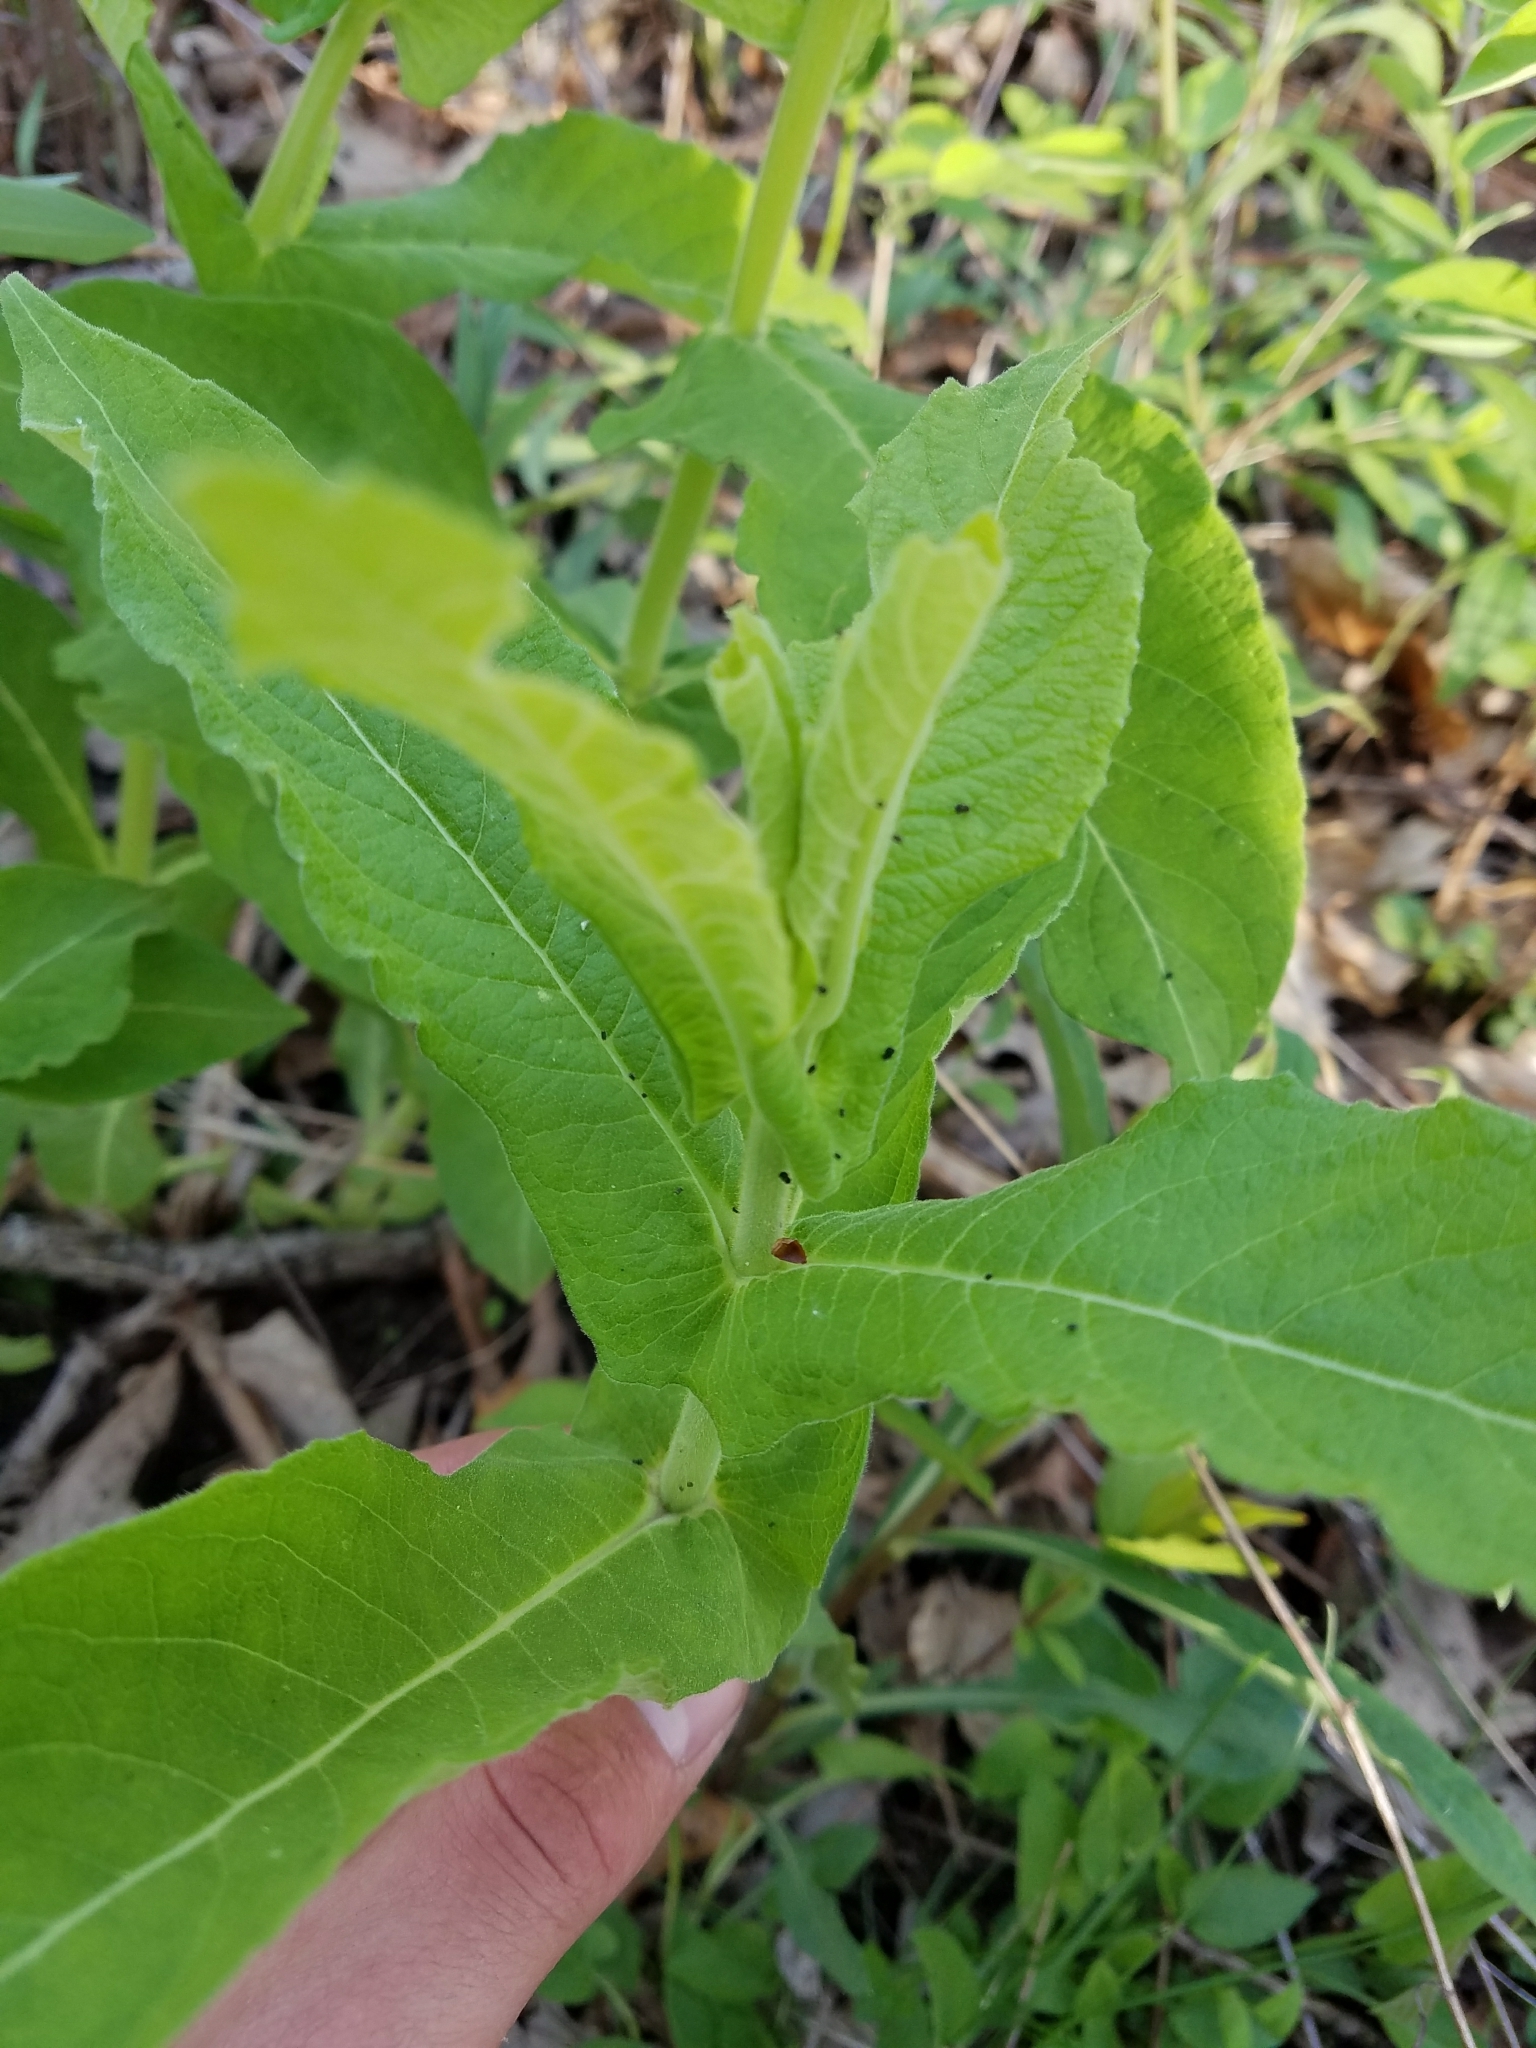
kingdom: Plantae
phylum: Tracheophyta
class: Magnoliopsida
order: Dipsacales
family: Caprifoliaceae
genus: Triosteum
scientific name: Triosteum perfoliatum
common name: Common horse-gentian
